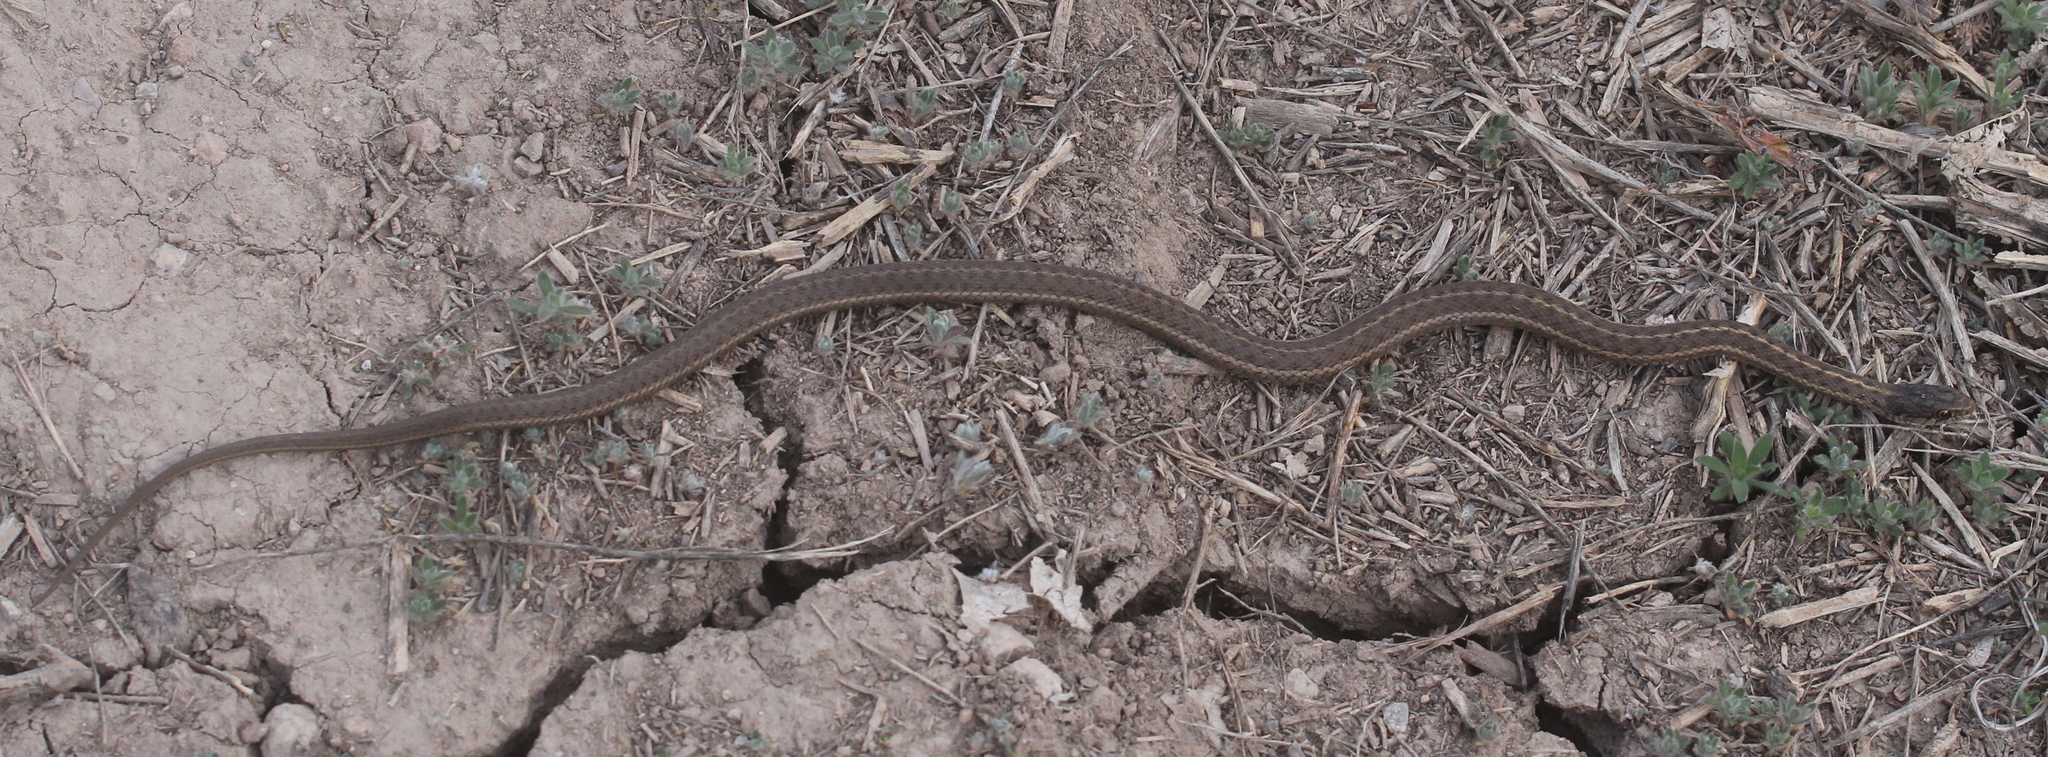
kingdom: Animalia
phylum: Chordata
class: Squamata
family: Colubridae
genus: Thamnophis
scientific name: Thamnophis elegans
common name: Western terrestrial garter snake
